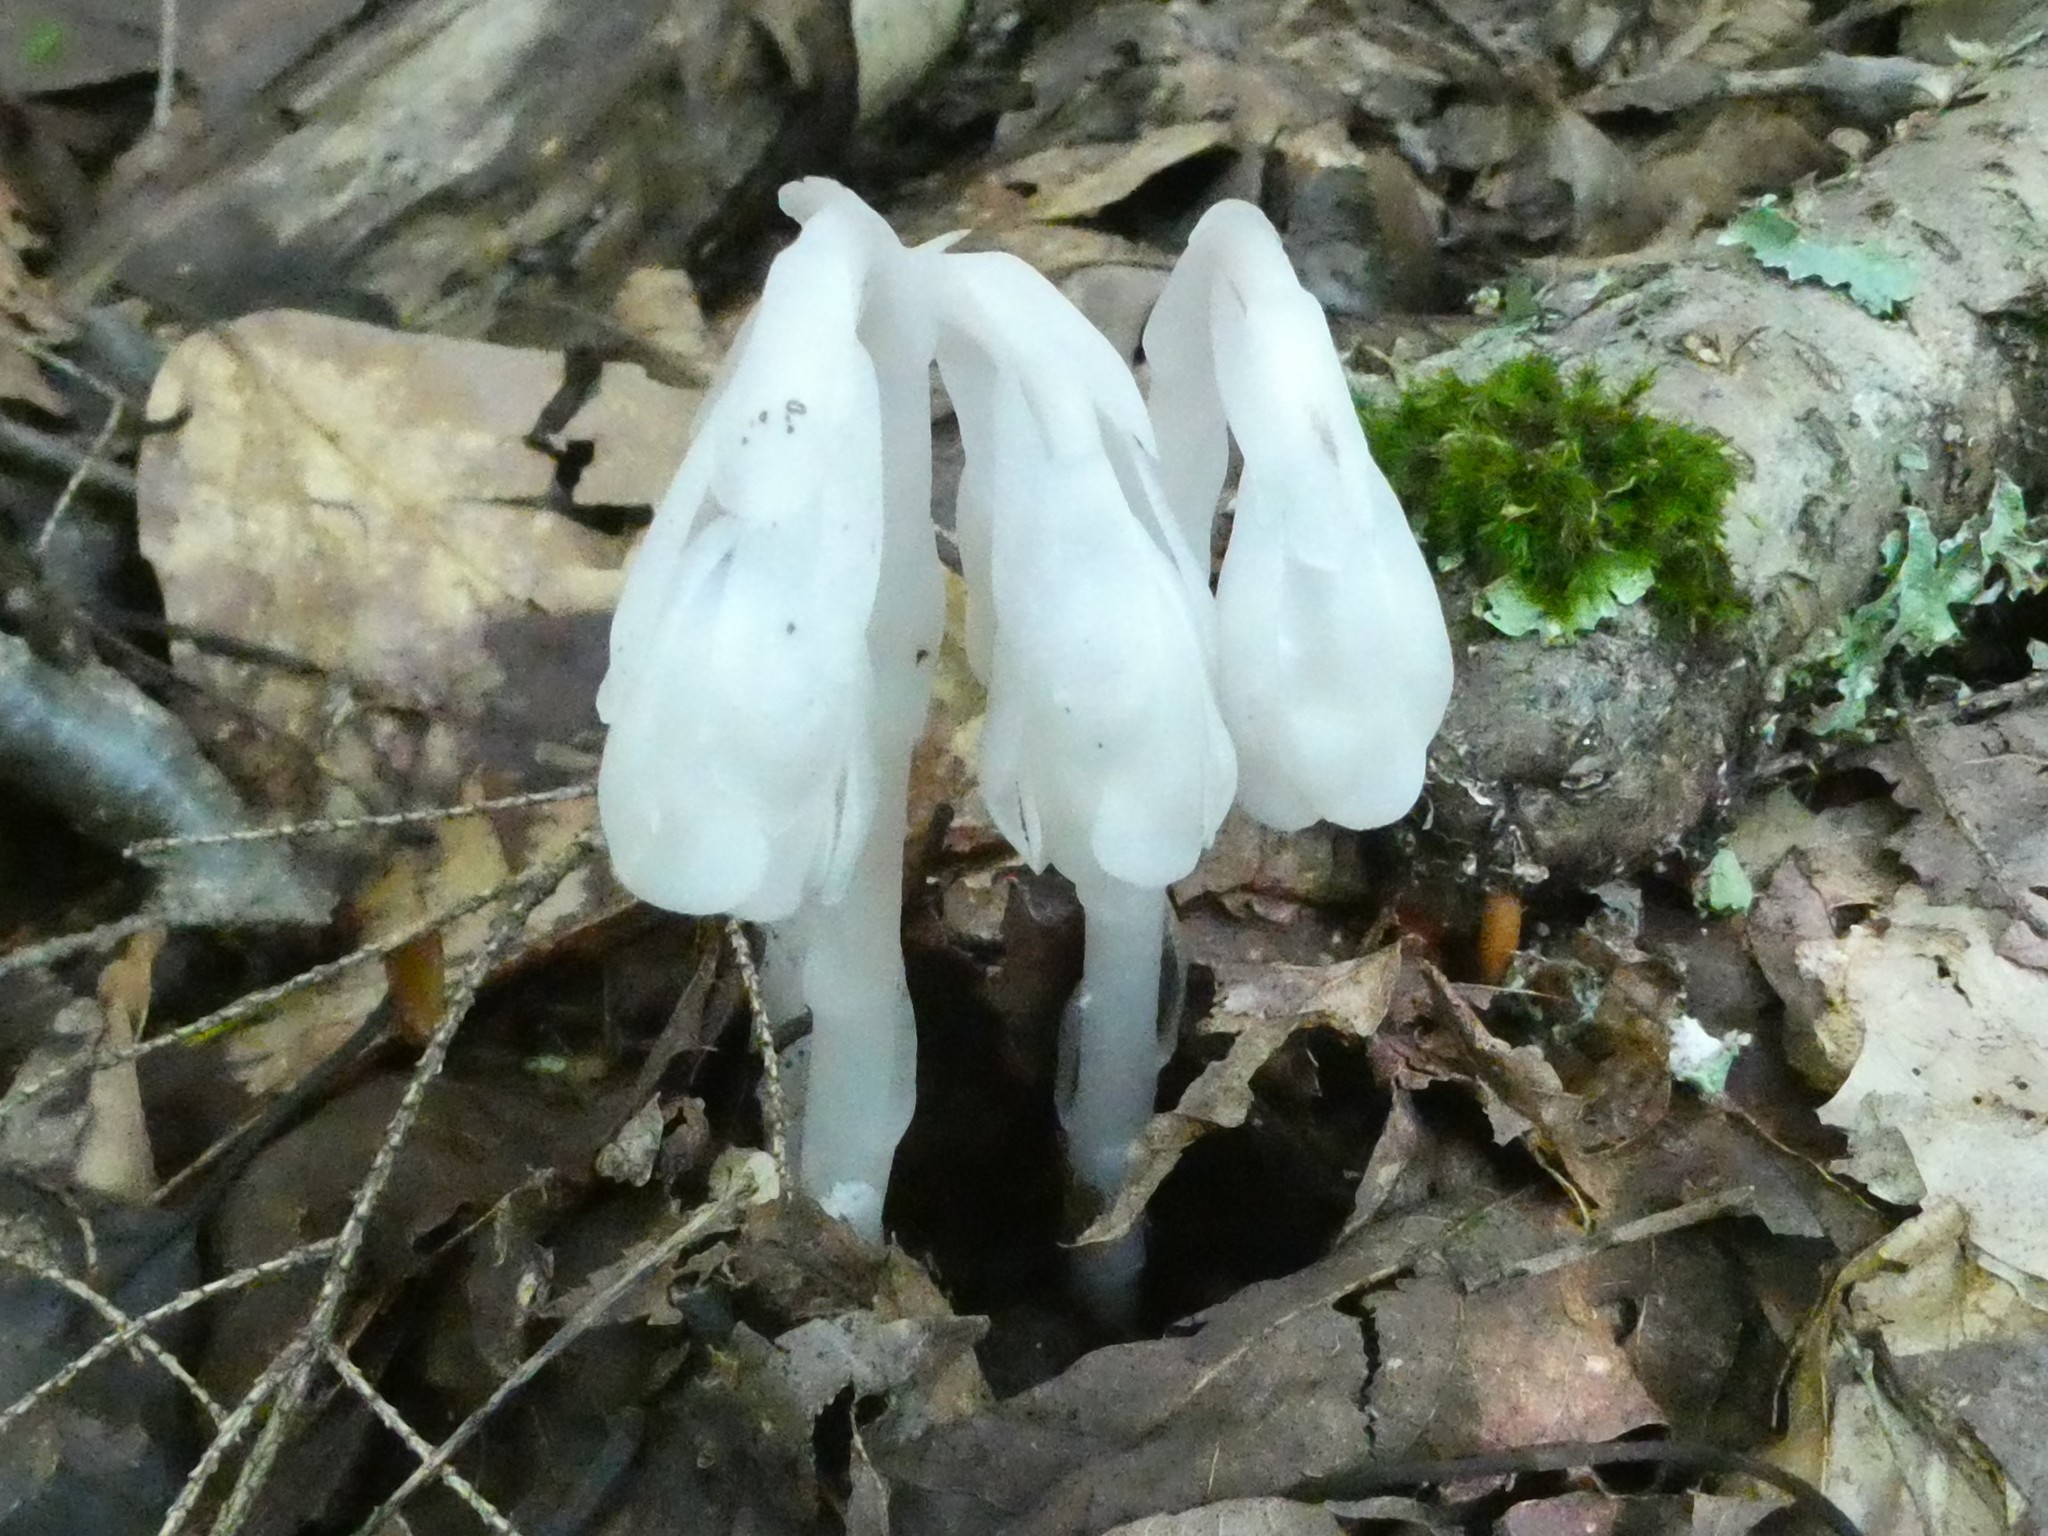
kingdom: Plantae
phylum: Tracheophyta
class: Magnoliopsida
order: Ericales
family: Ericaceae
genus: Monotropa
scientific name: Monotropa uniflora
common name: Convulsion root
